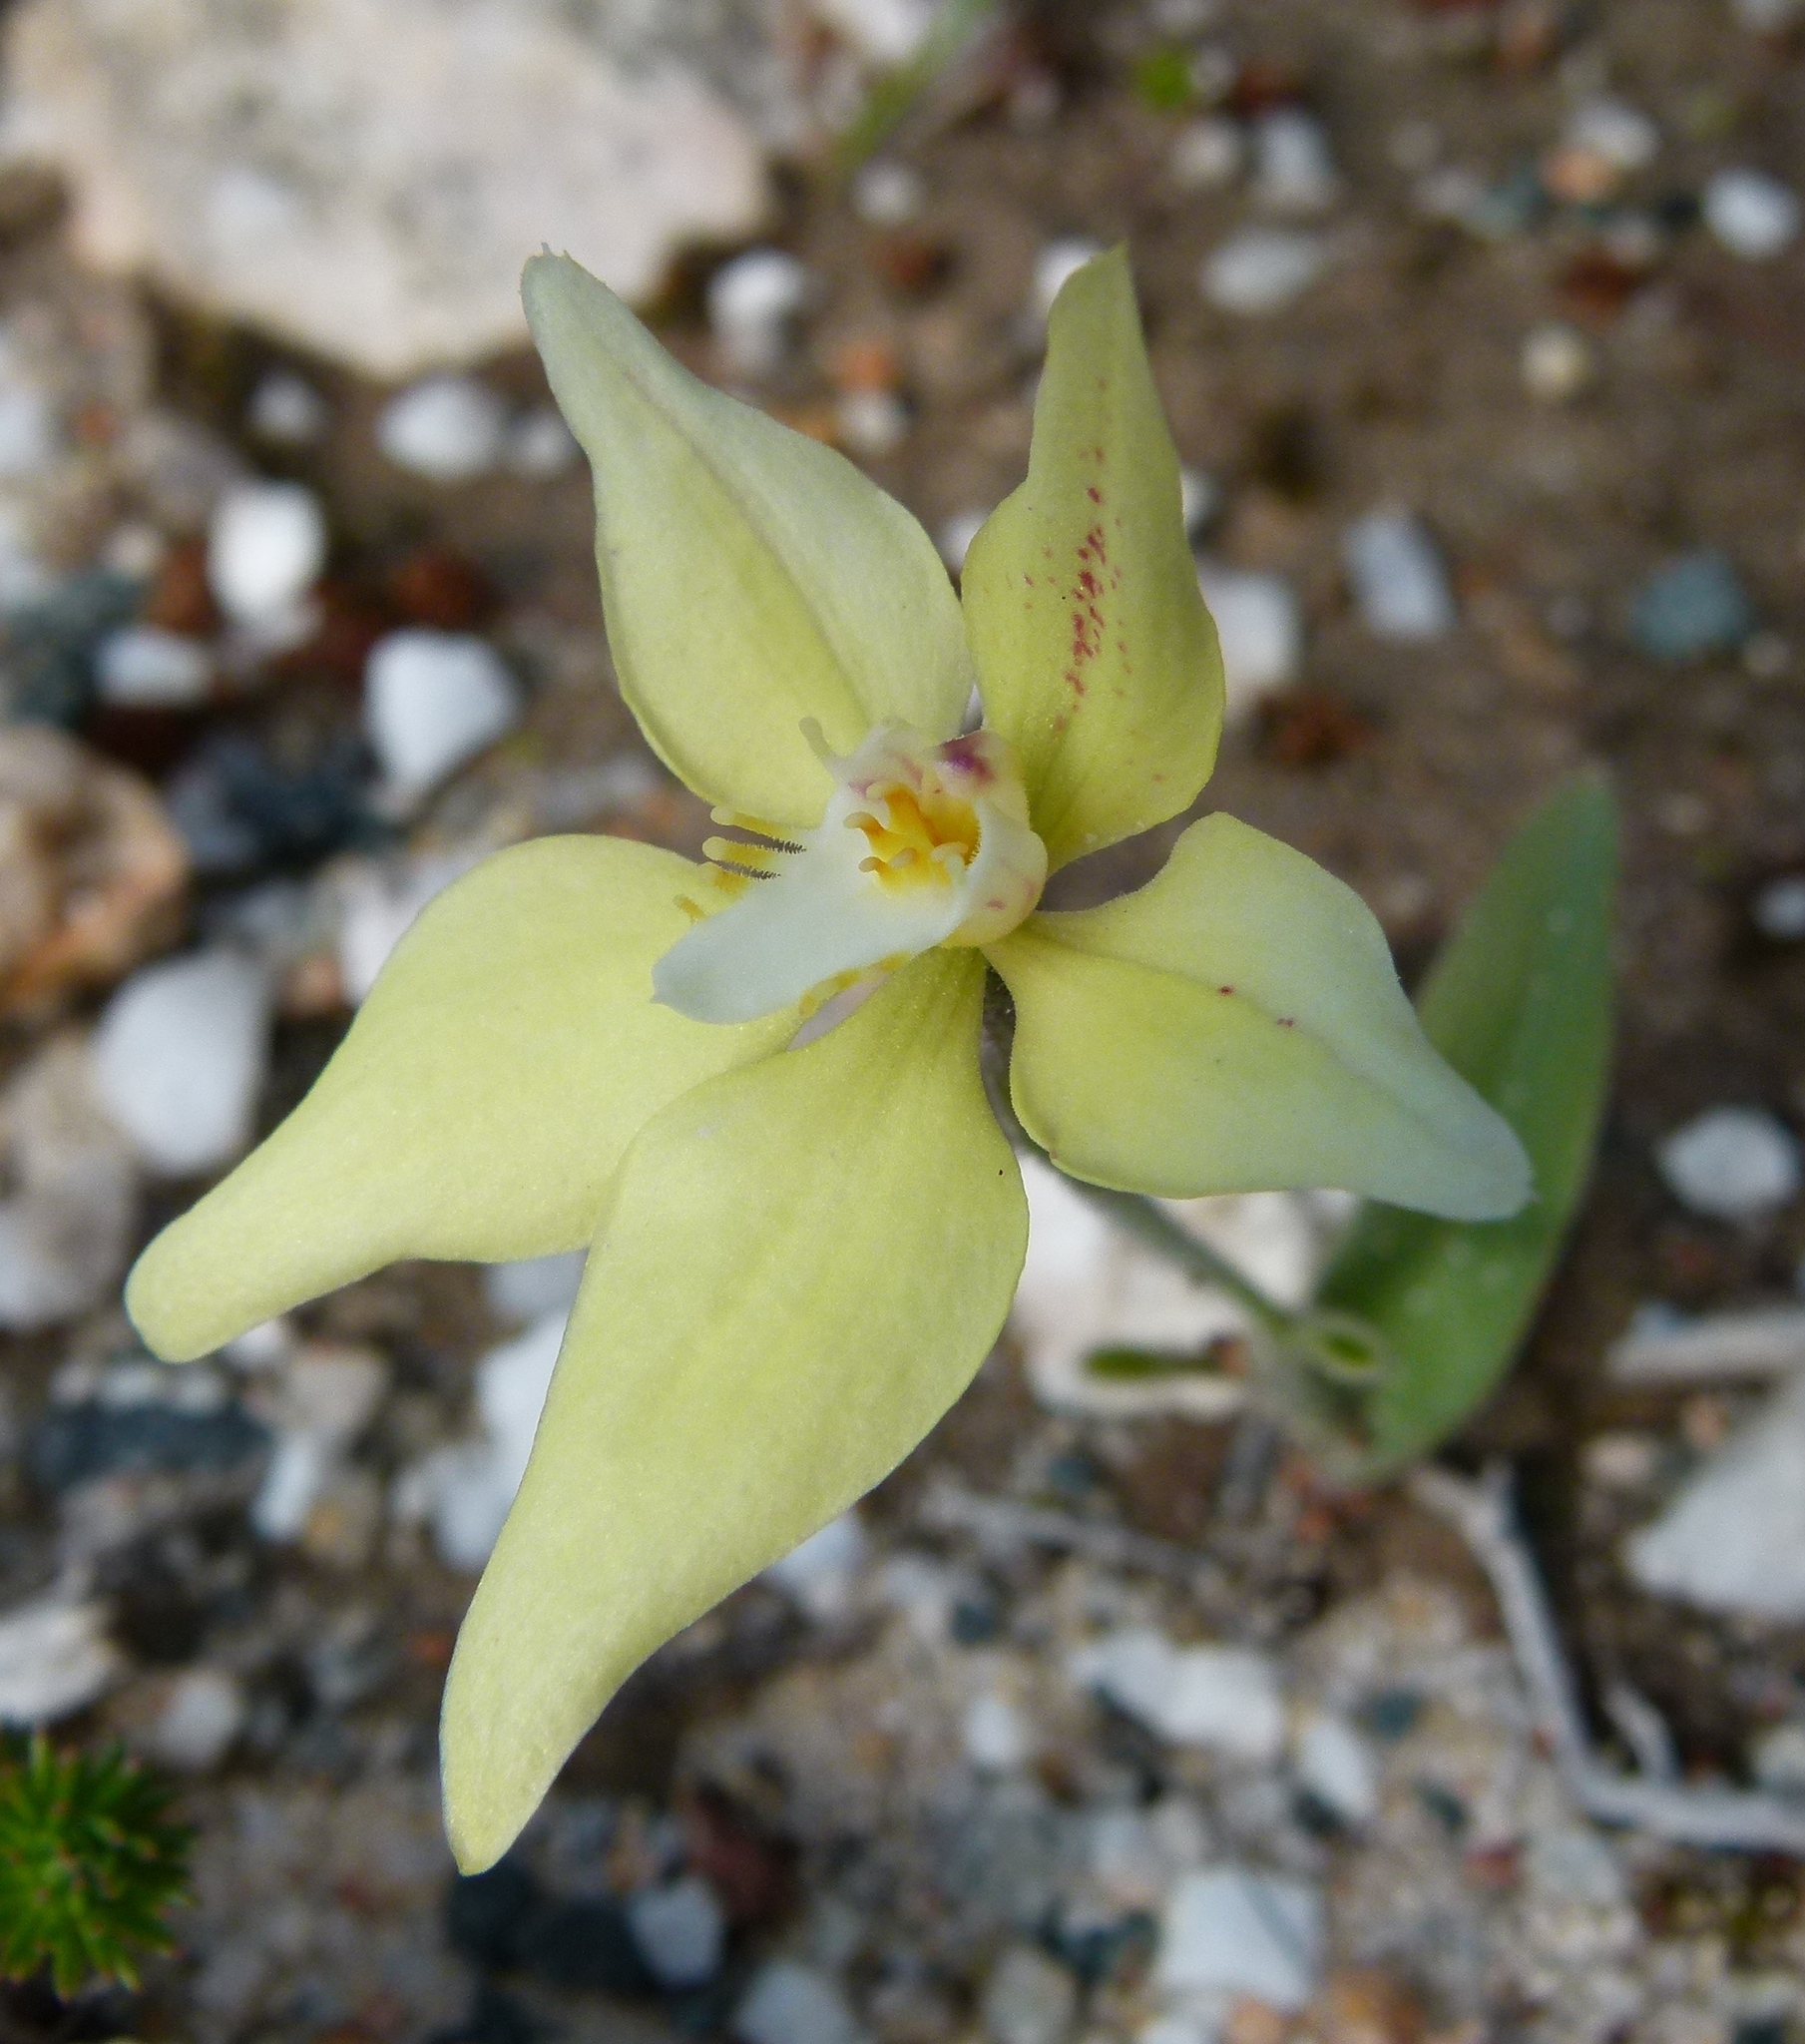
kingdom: Plantae
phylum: Tracheophyta
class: Liliopsida
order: Asparagales
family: Orchidaceae
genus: Caladenia
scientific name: Caladenia flava
